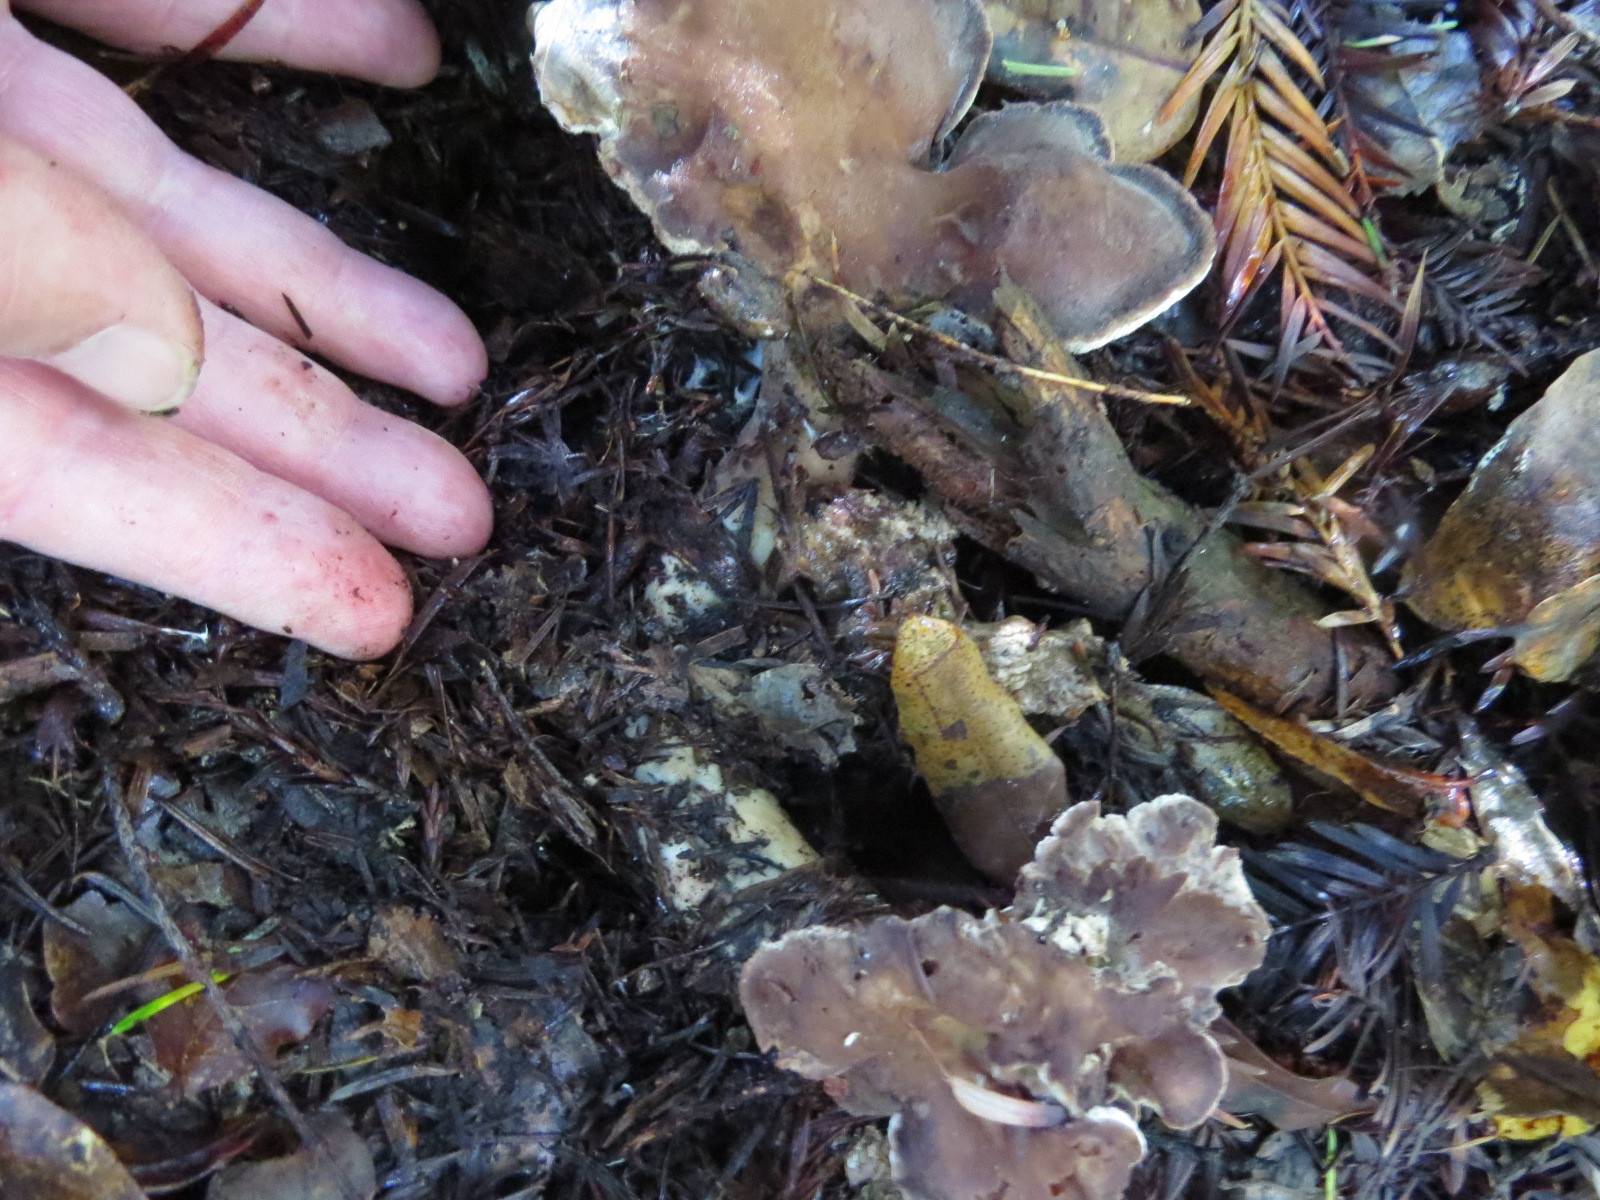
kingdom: Fungi
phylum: Basidiomycota
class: Agaricomycetes
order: Polyporales
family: Dacryobolaceae
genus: Jahnoporus
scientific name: Jahnoporus hirtus
